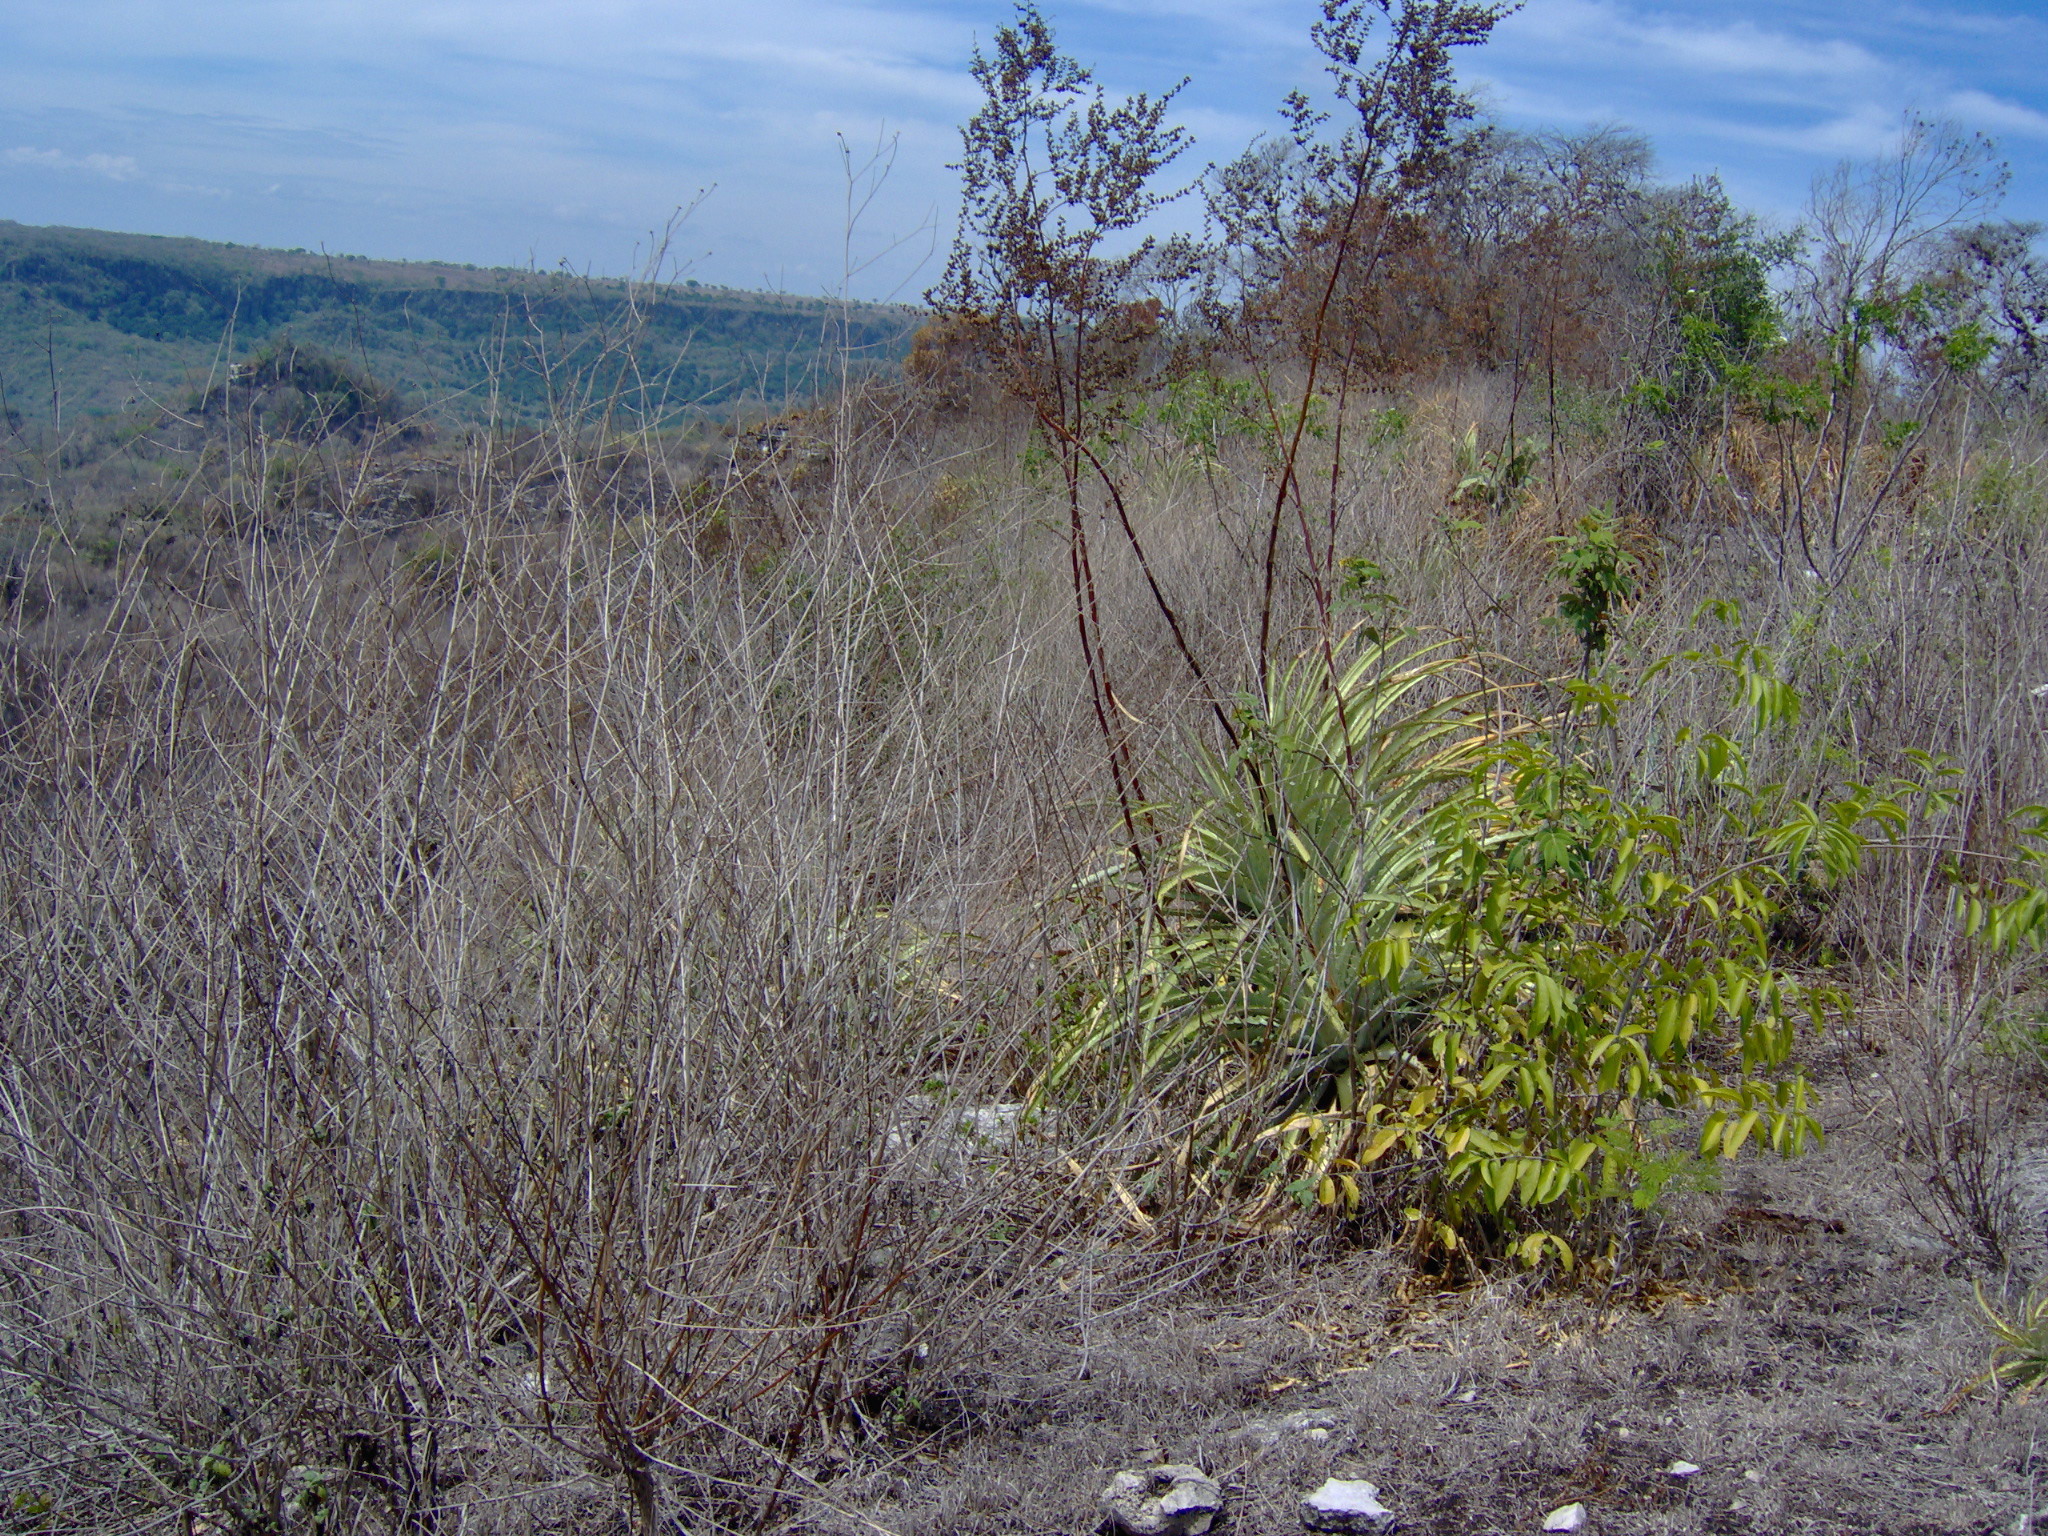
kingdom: Plantae
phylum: Tracheophyta
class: Liliopsida
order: Poales
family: Bromeliaceae
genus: Hechtia
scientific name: Hechtia myriantha
